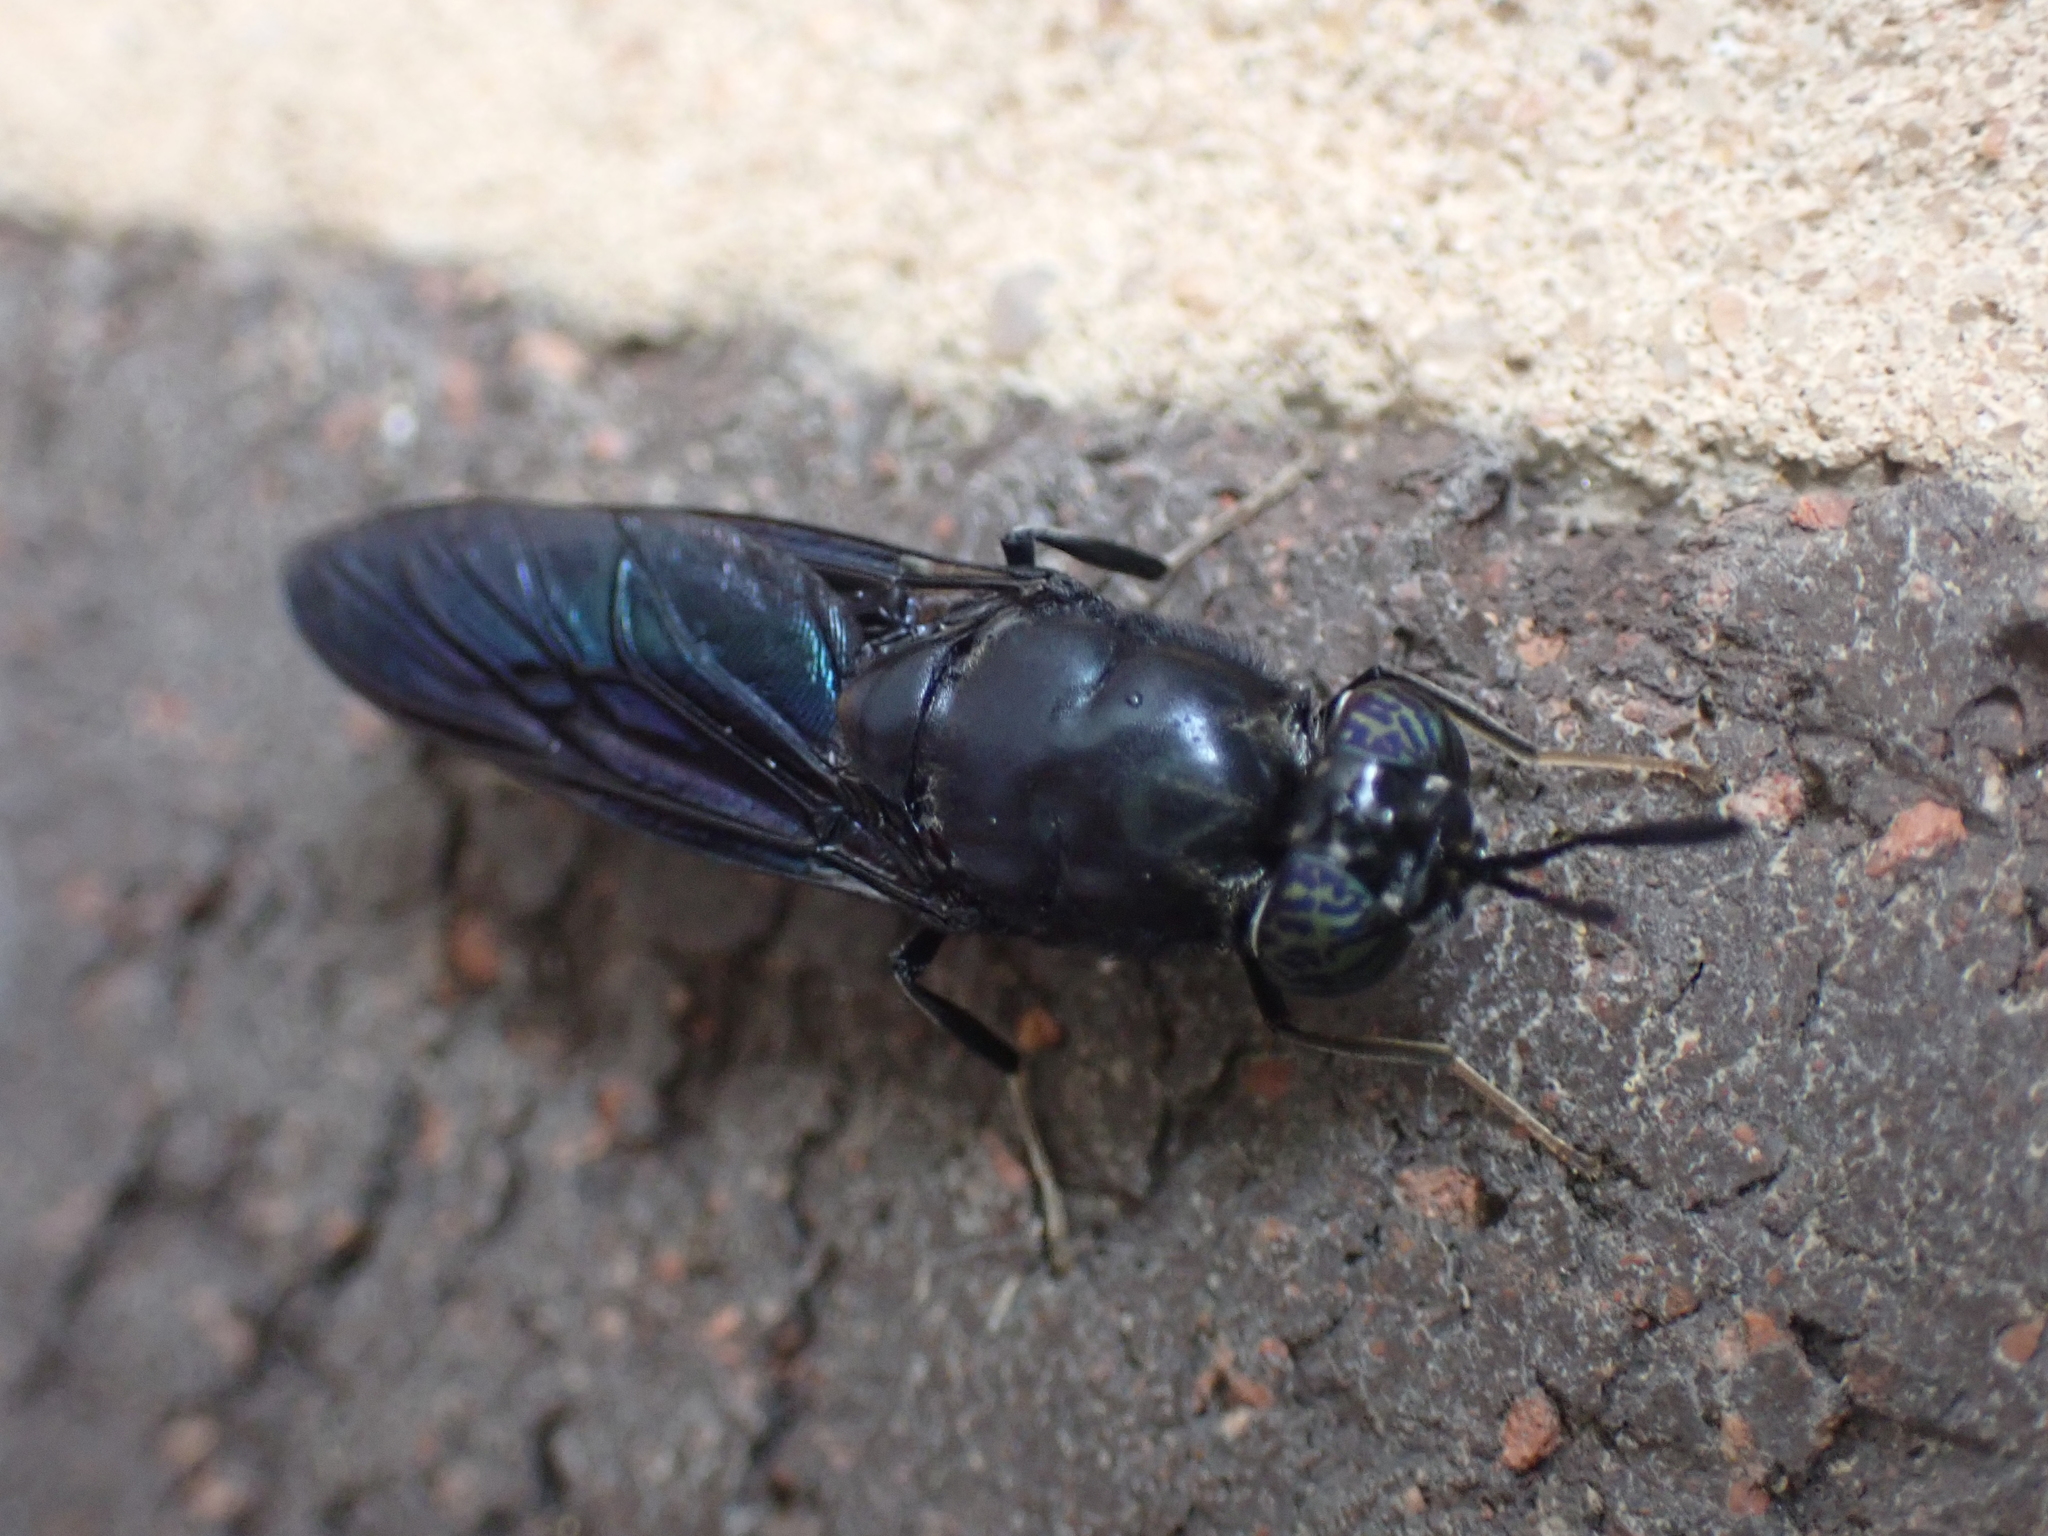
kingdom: Animalia
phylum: Arthropoda
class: Insecta
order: Diptera
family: Stratiomyidae
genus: Hermetia
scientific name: Hermetia illucens
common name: Black soldier fly
